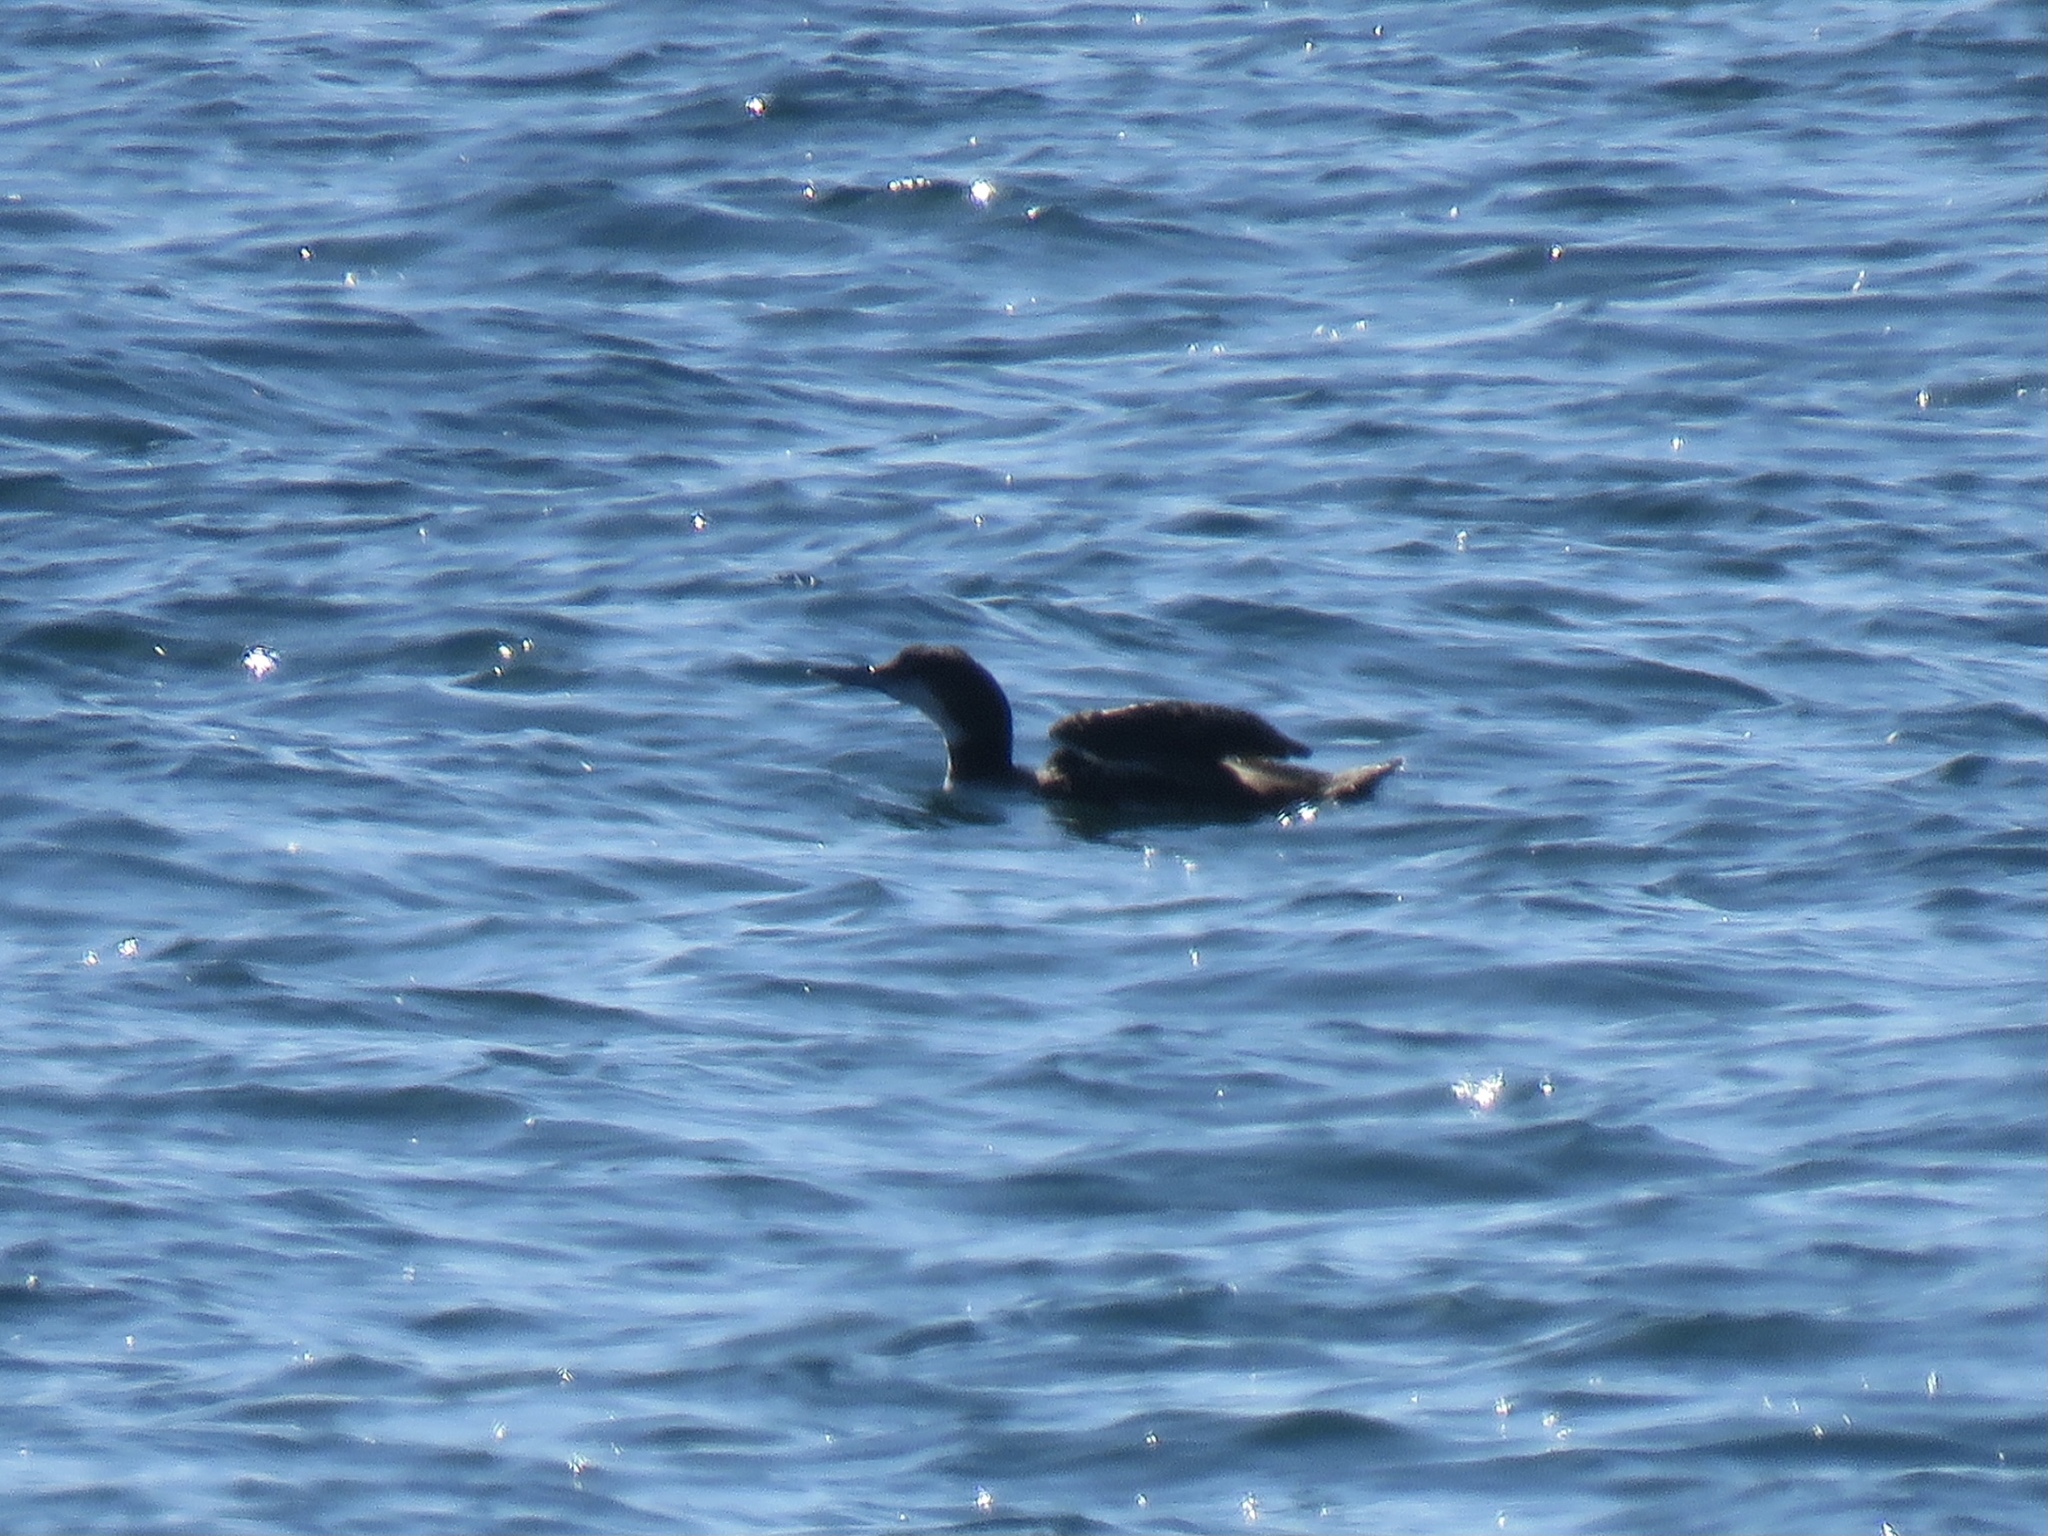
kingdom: Animalia
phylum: Chordata
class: Aves
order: Gaviiformes
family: Gaviidae
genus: Gavia
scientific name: Gavia immer
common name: Common loon
